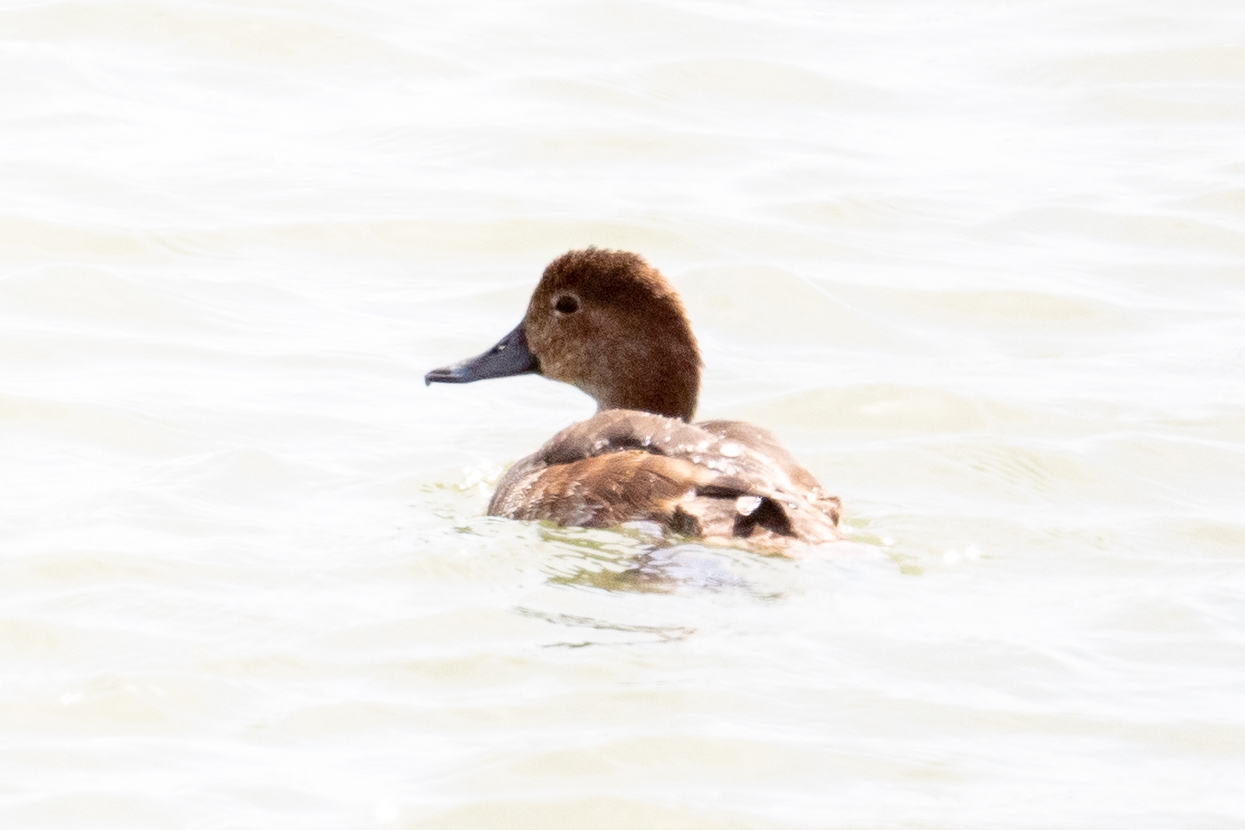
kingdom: Animalia
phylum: Chordata
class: Aves
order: Anseriformes
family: Anatidae
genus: Aythya
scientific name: Aythya americana
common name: Redhead
